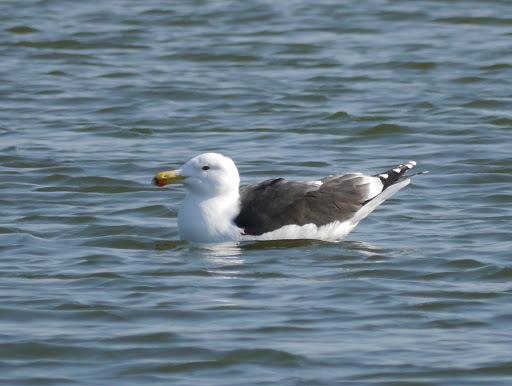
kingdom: Animalia
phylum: Chordata
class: Aves
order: Charadriiformes
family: Laridae
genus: Larus
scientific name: Larus marinus
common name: Great black-backed gull
